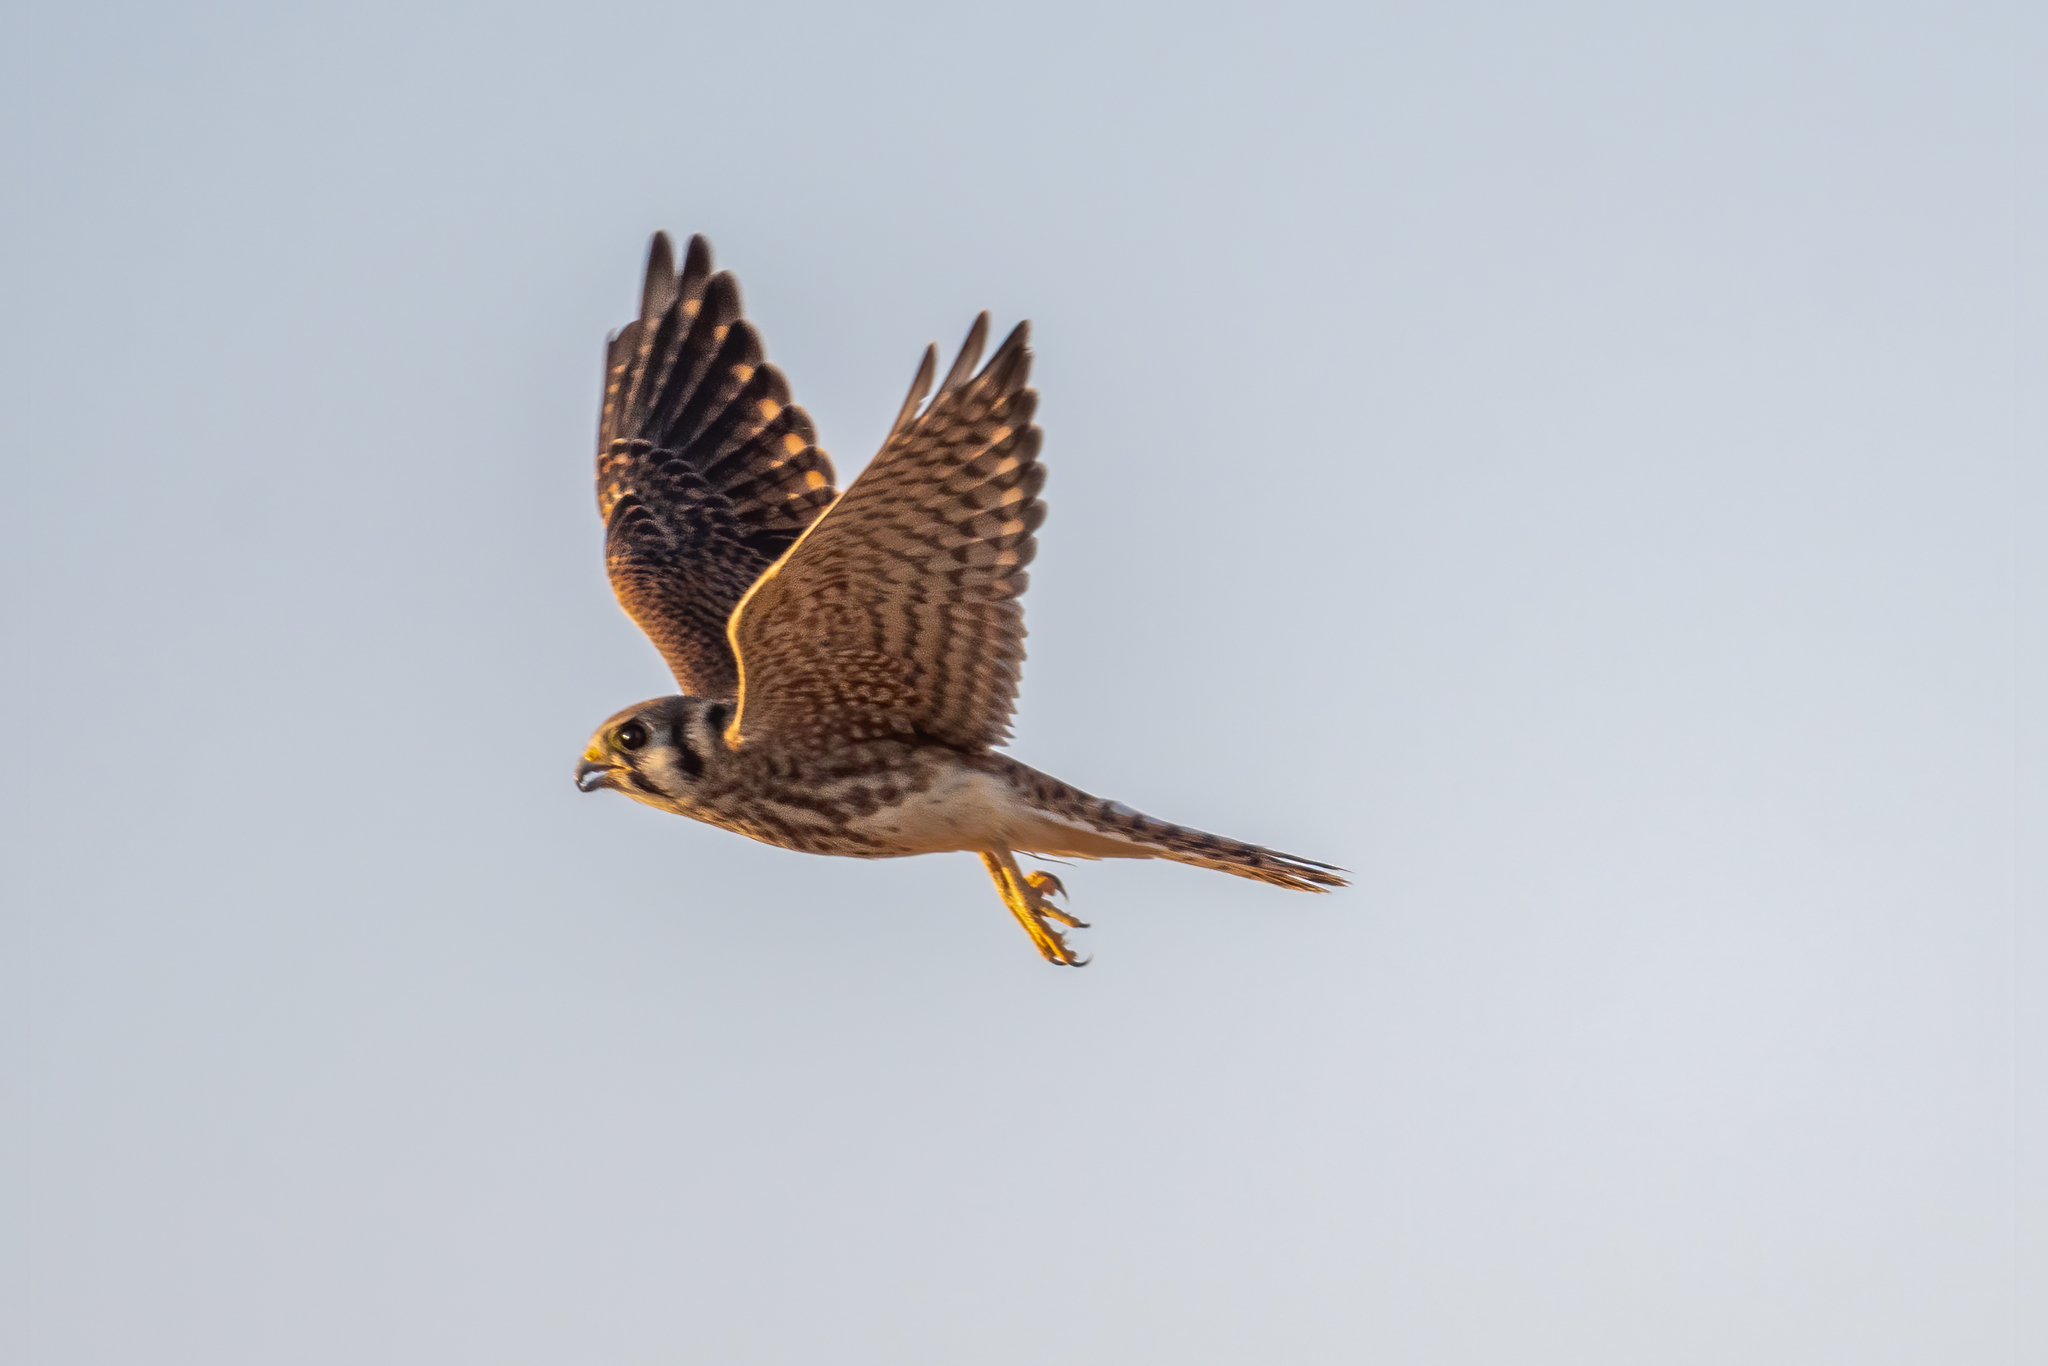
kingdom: Animalia
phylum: Chordata
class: Aves
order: Falconiformes
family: Falconidae
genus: Falco
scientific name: Falco sparverius
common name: American kestrel
